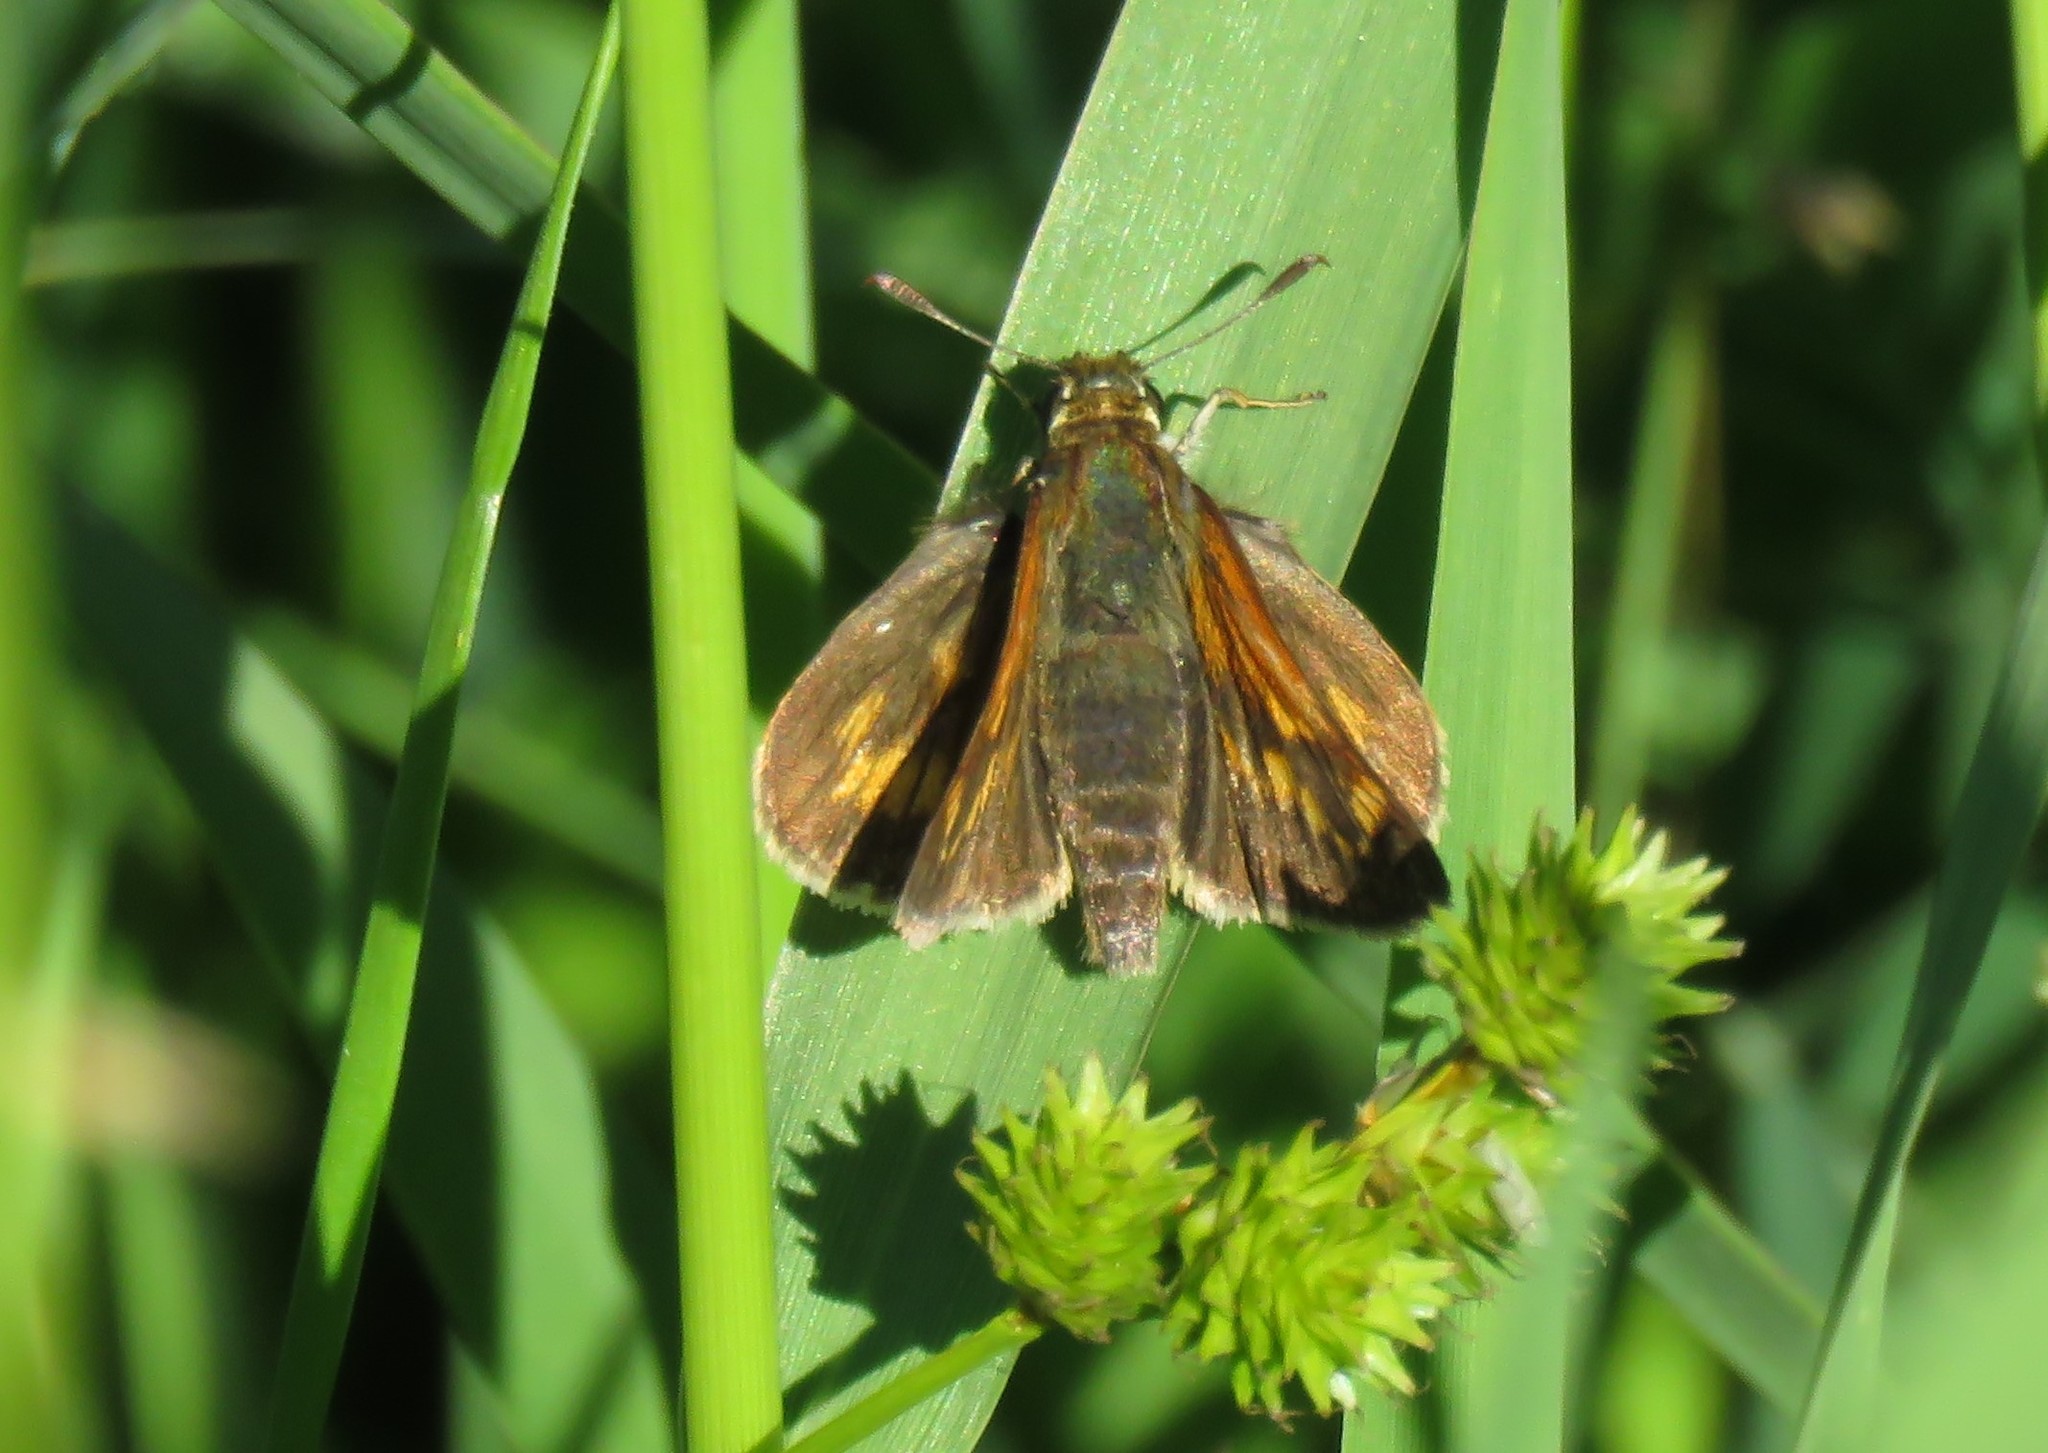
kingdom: Animalia
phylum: Arthropoda
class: Insecta
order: Lepidoptera
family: Hesperiidae
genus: Polites
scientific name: Polites mystic
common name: Long dash
